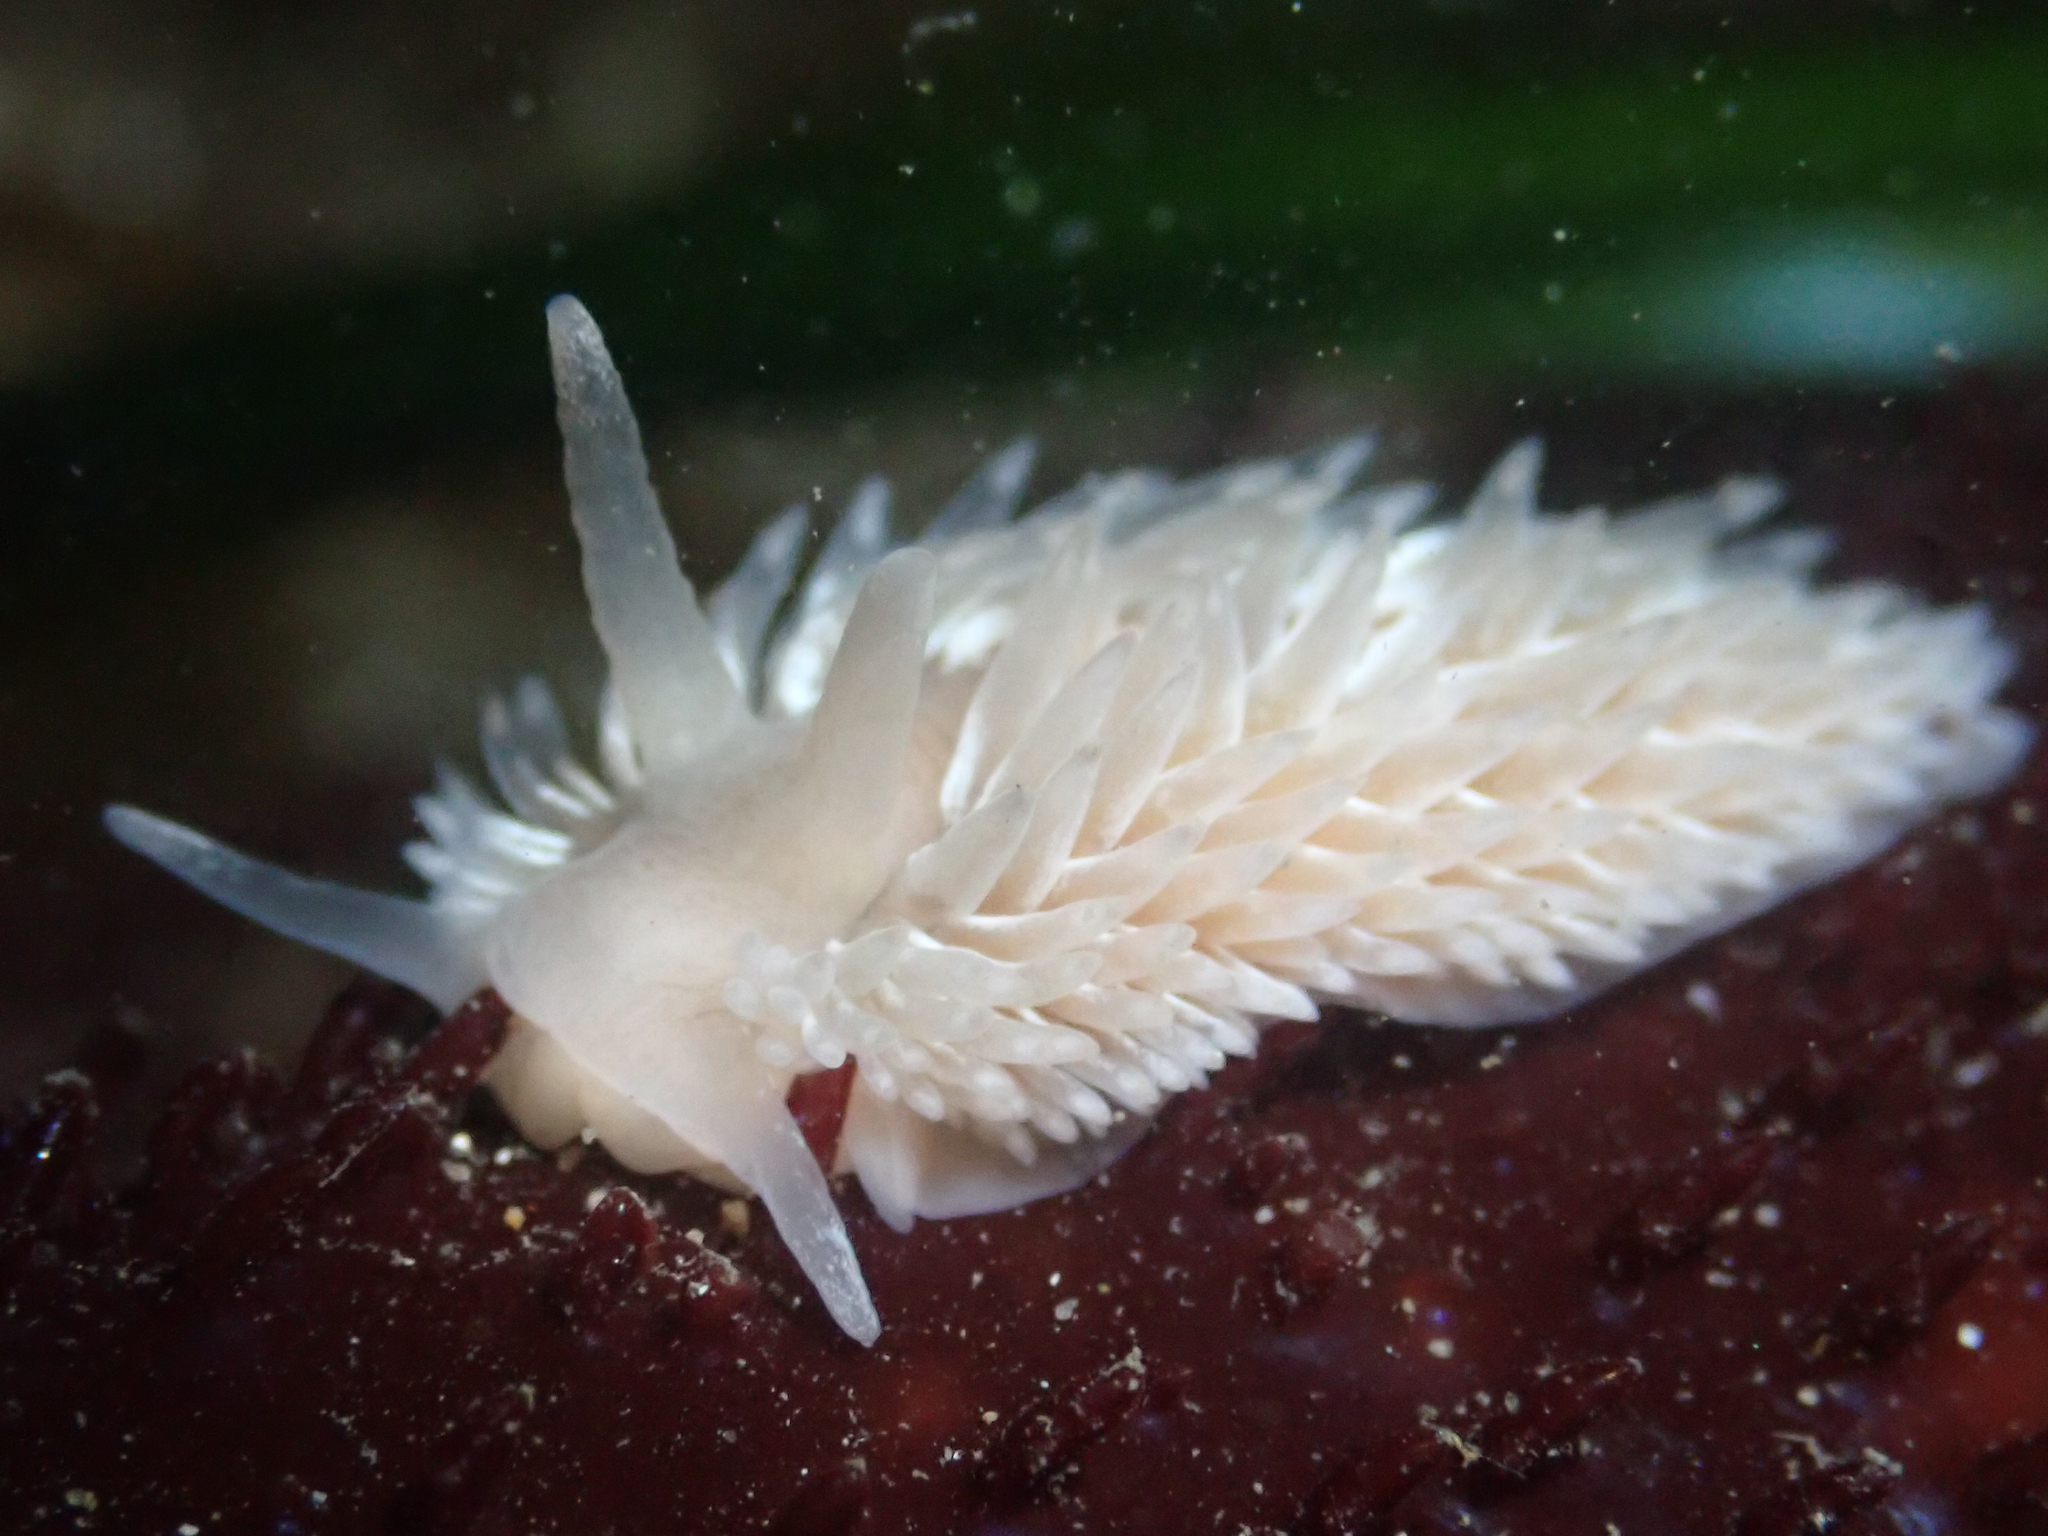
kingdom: Animalia
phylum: Mollusca
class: Gastropoda
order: Nudibranchia
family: Aeolidiidae
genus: Aeolidia
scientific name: Aeolidia loui
